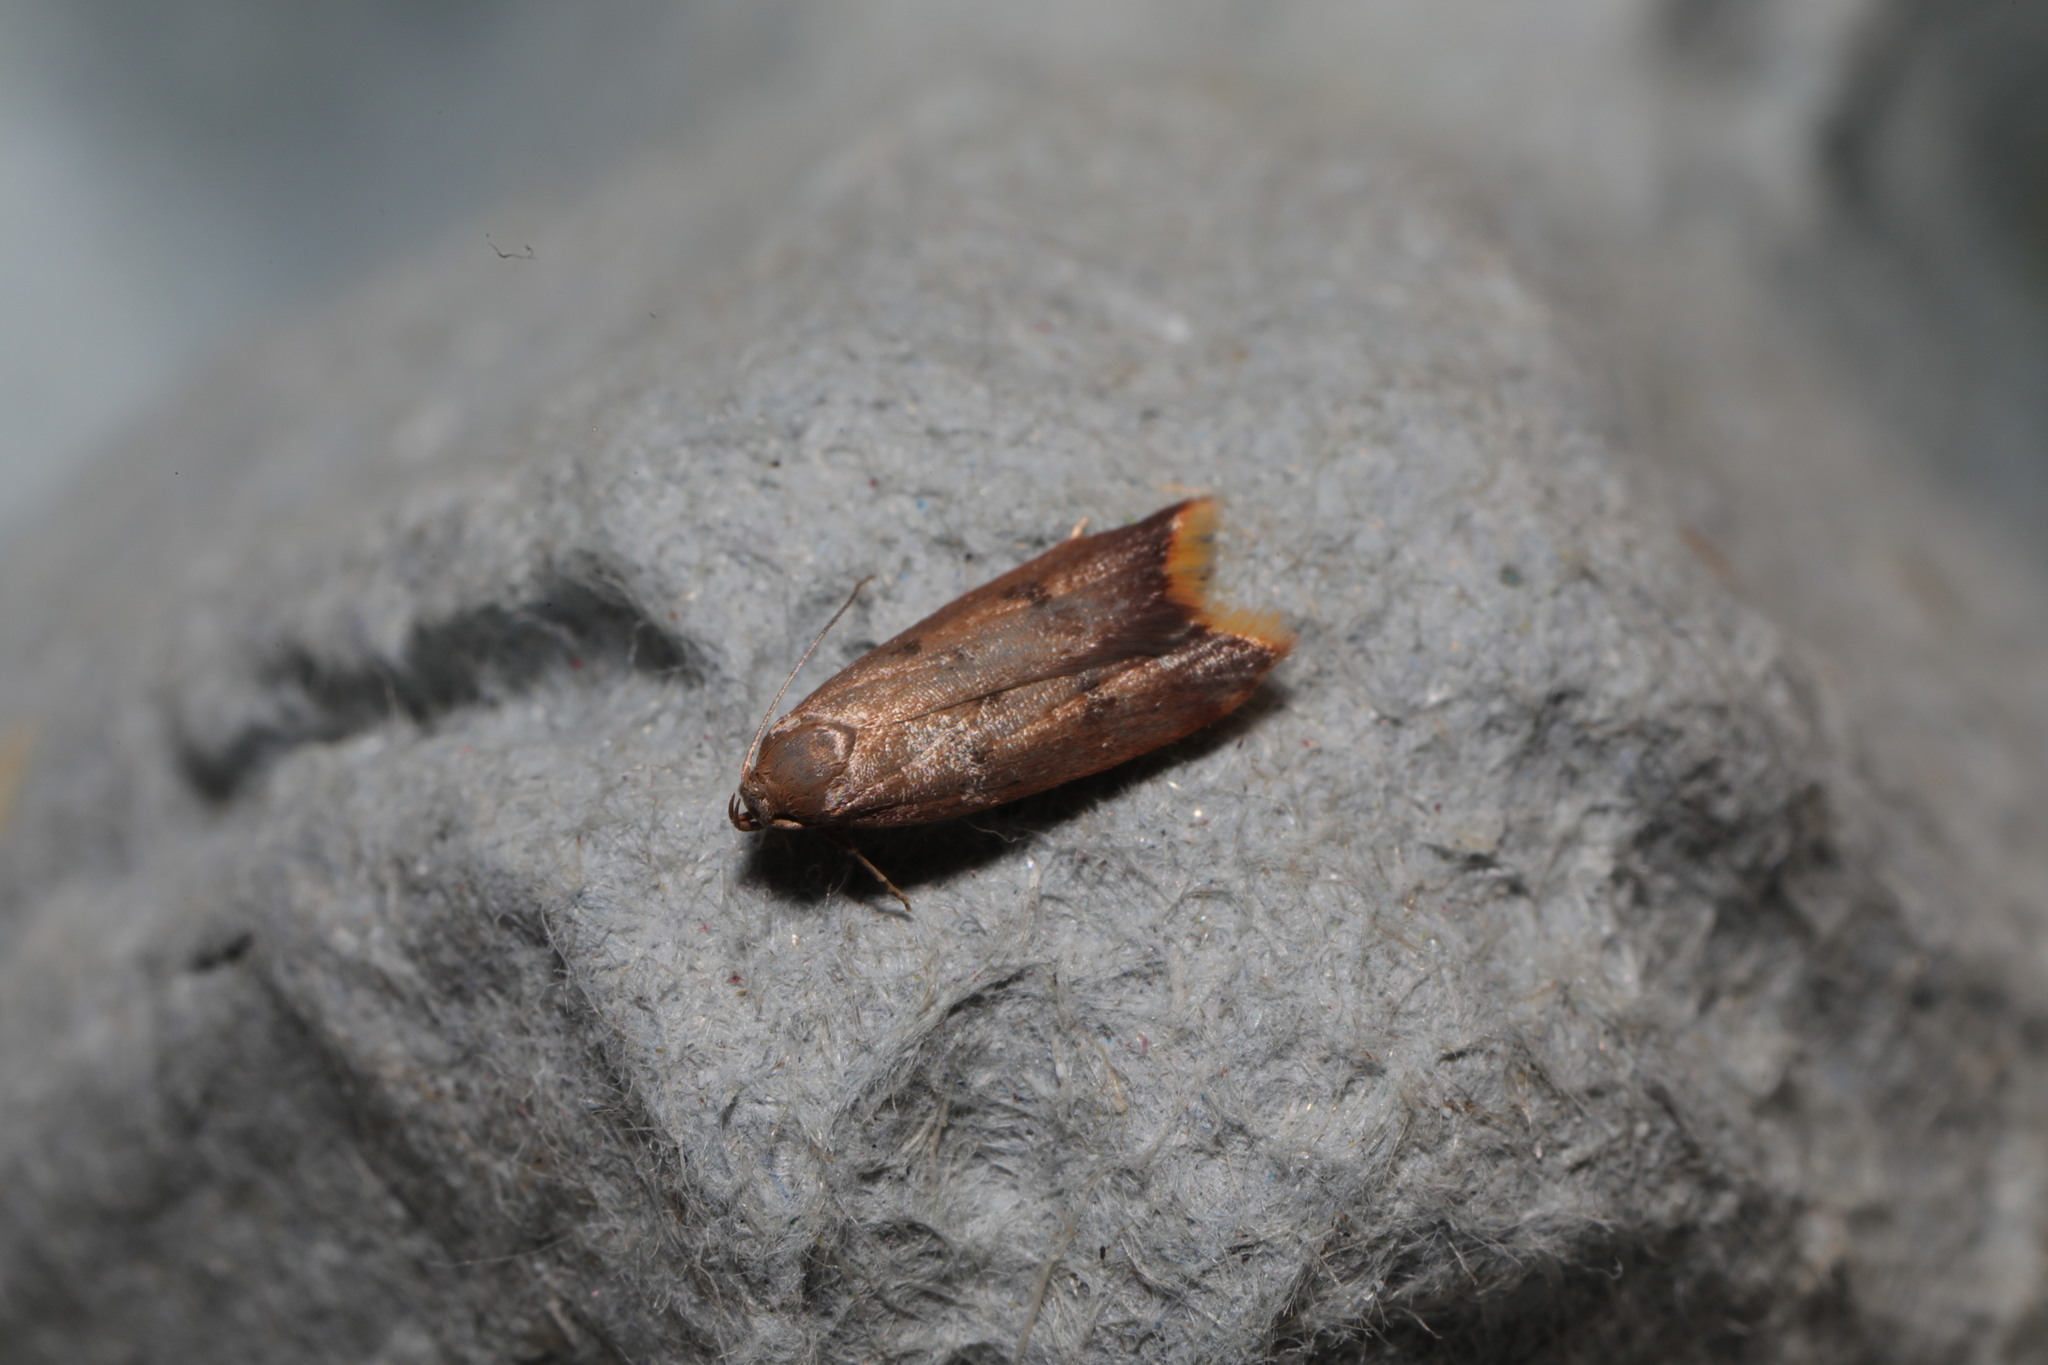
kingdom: Animalia
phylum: Arthropoda
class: Insecta
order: Lepidoptera
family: Oecophoridae
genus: Tachystola
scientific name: Tachystola acroxantha
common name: Ruddy streak
